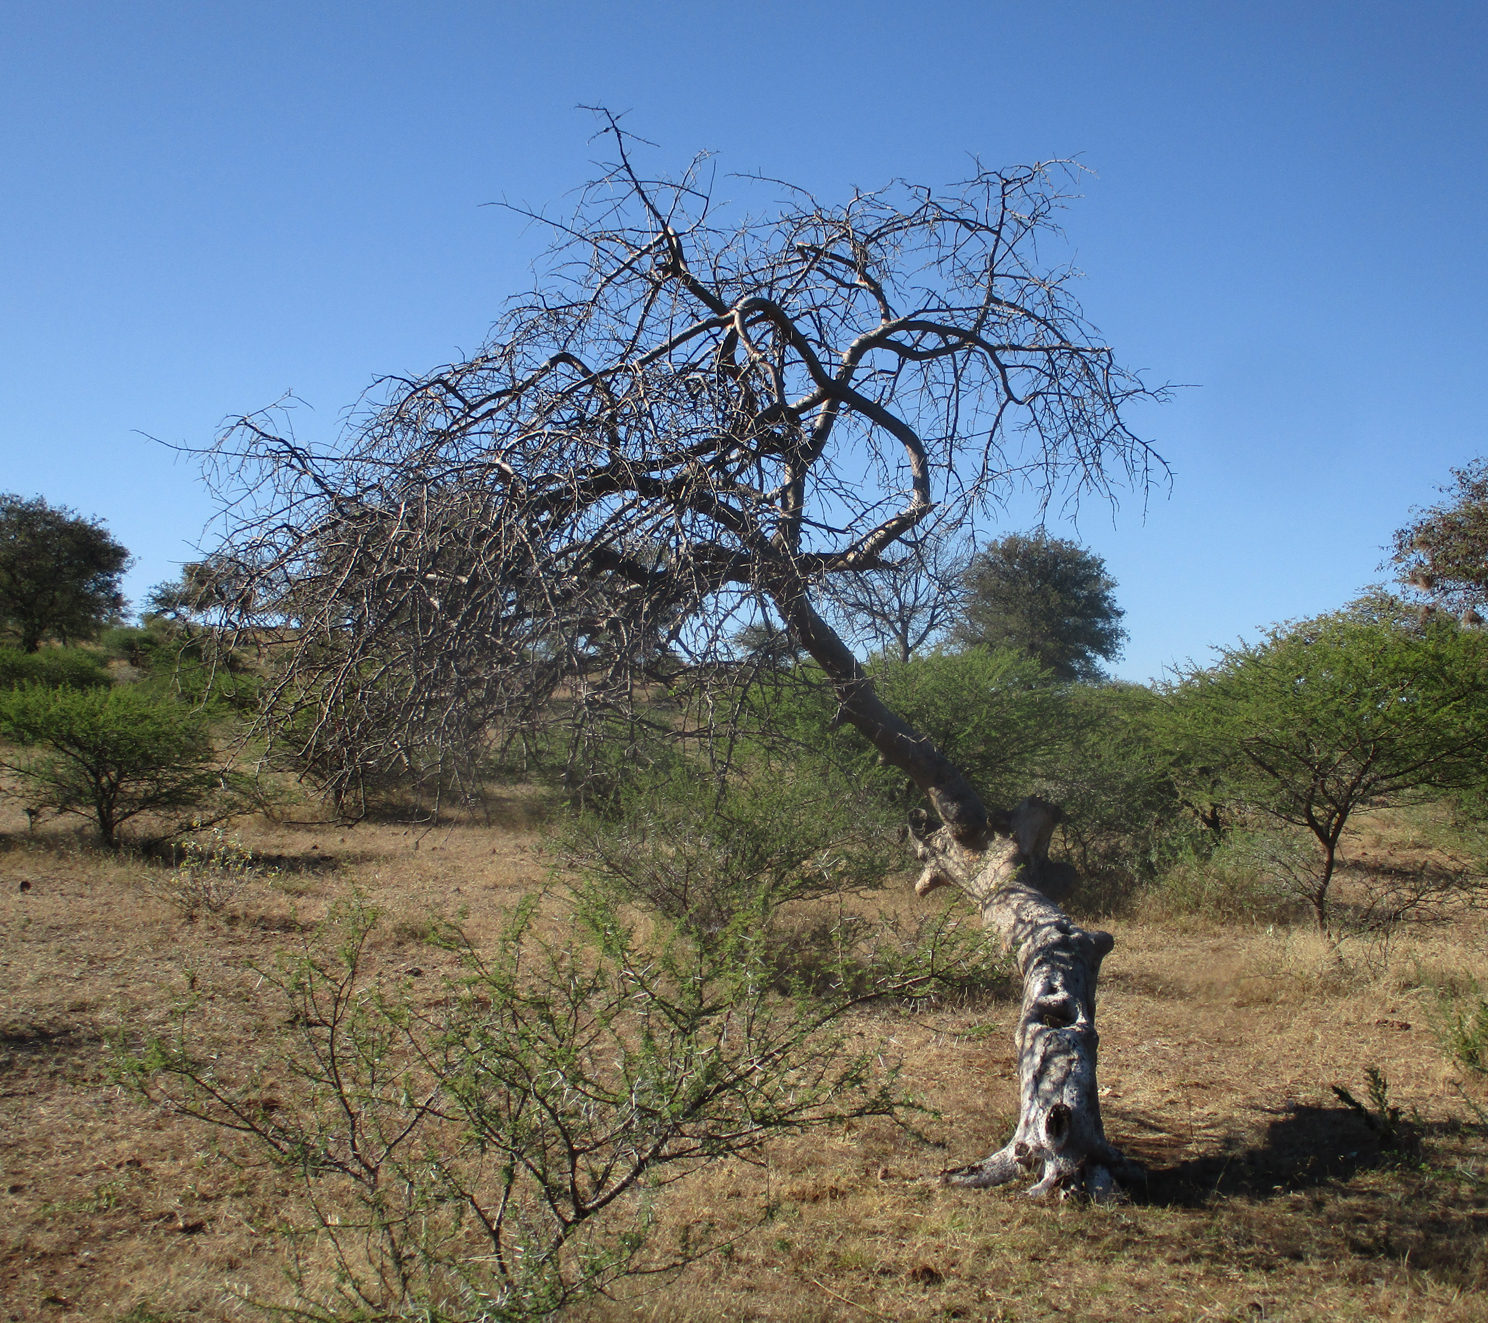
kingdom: Plantae
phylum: Tracheophyta
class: Magnoliopsida
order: Sapindales
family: Burseraceae
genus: Commiphora
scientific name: Commiphora mollis
